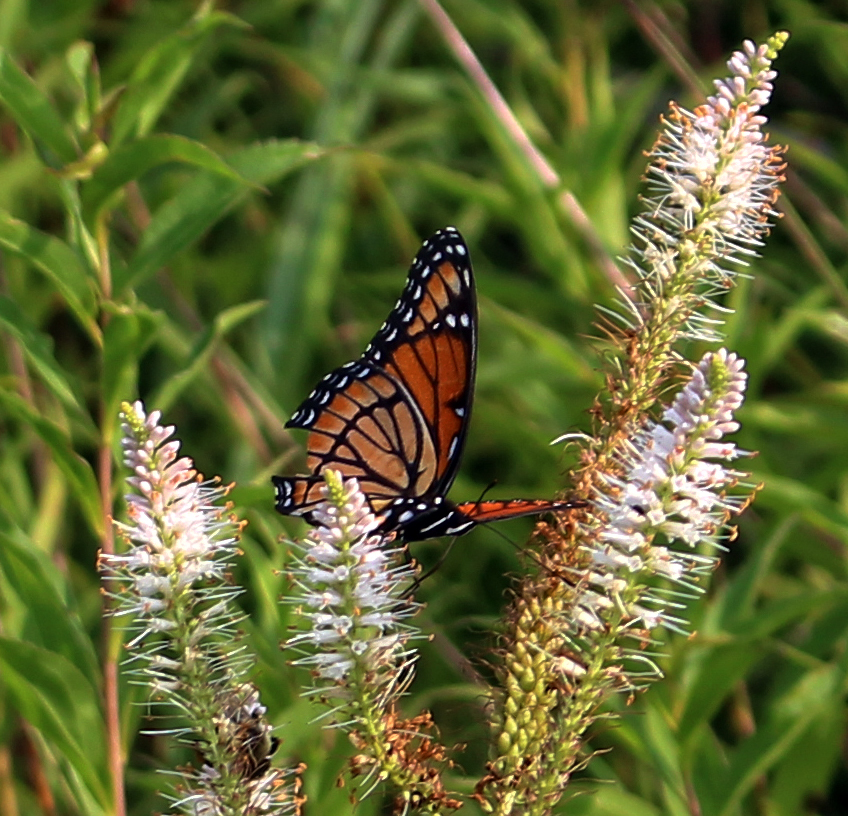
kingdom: Animalia
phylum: Arthropoda
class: Insecta
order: Lepidoptera
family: Nymphalidae
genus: Limenitis
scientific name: Limenitis archippus
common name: Viceroy
